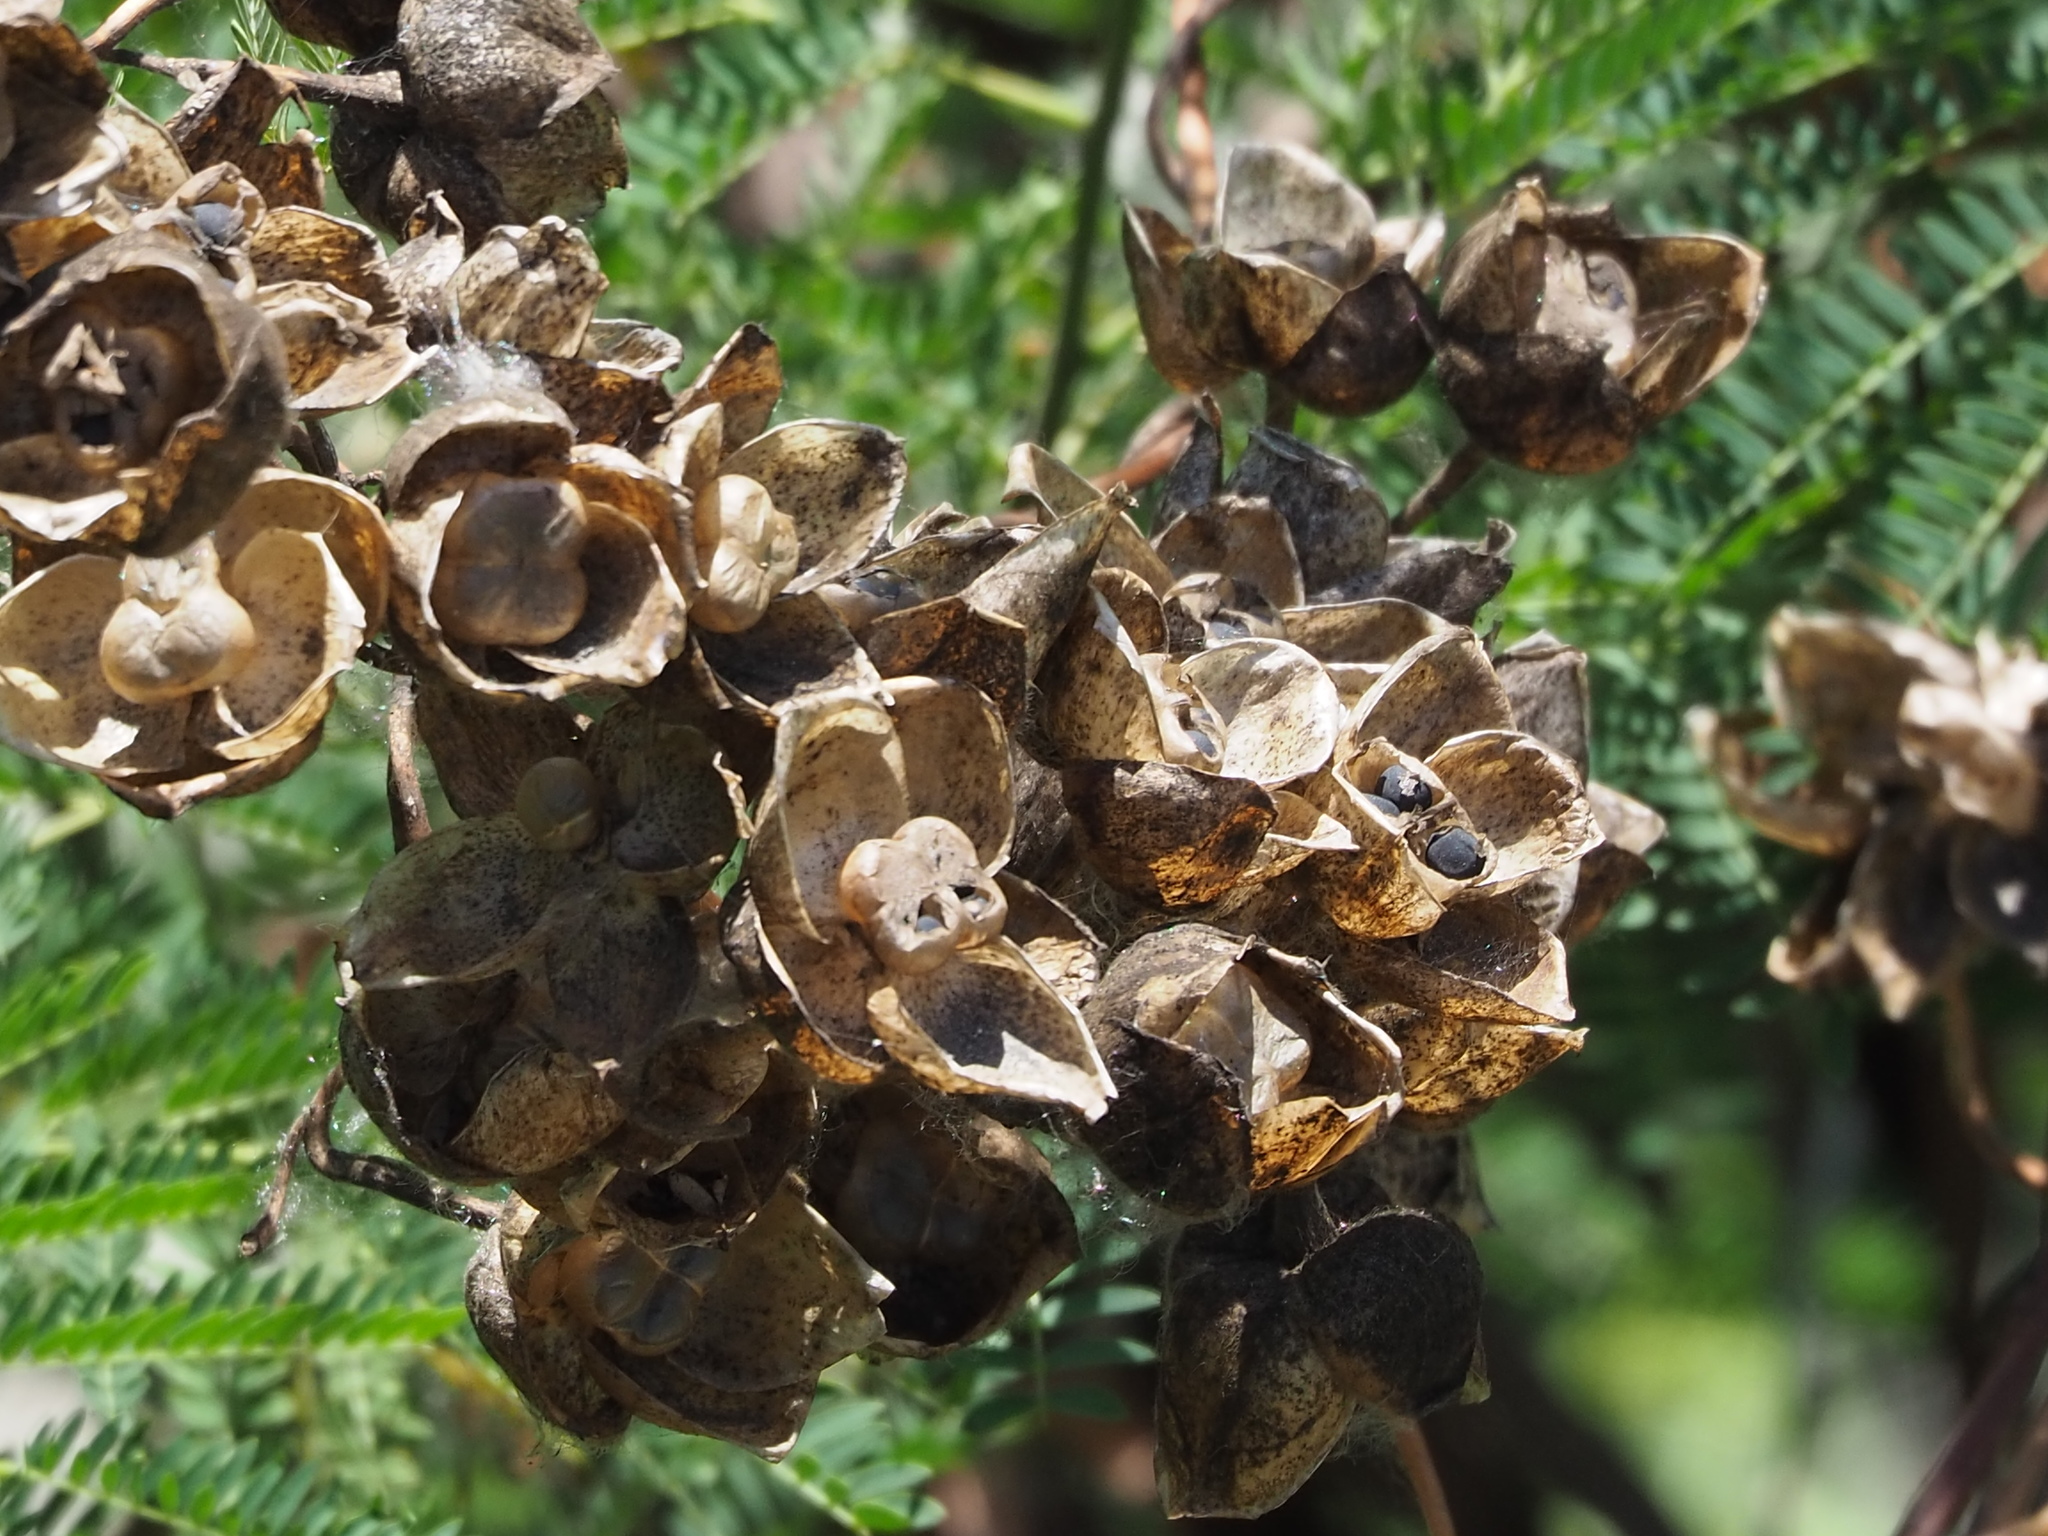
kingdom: Plantae
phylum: Tracheophyta
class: Magnoliopsida
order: Solanales
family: Convolvulaceae
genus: Operculina
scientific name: Operculina turpethum
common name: Transparent wood-rose
